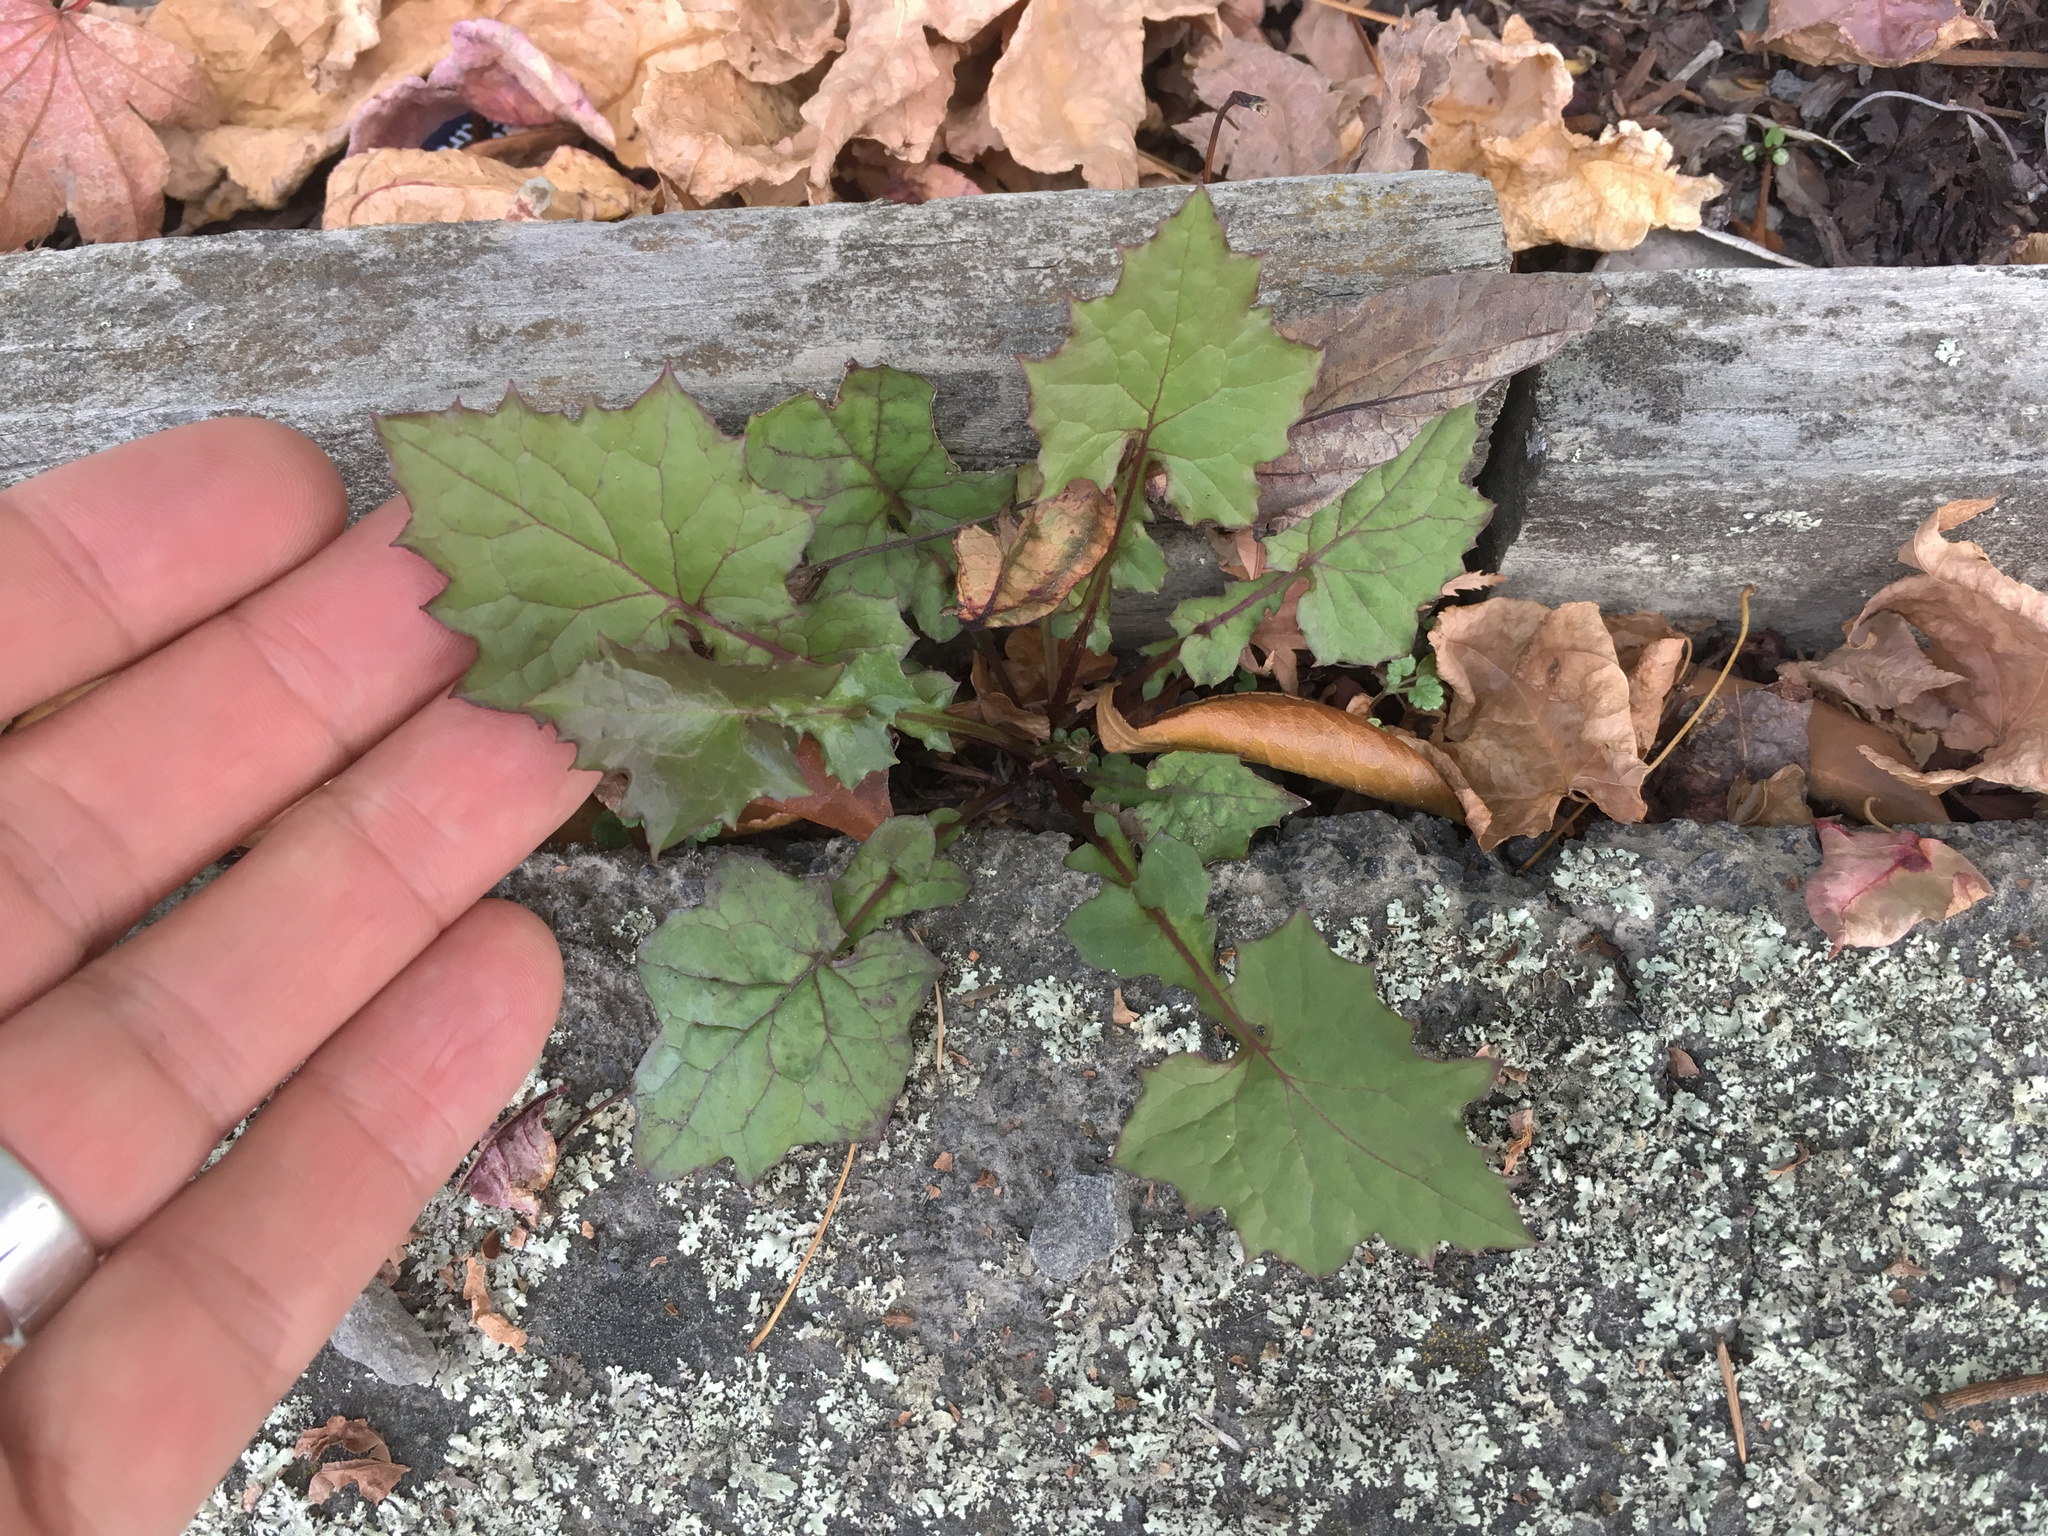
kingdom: Plantae
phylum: Tracheophyta
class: Magnoliopsida
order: Asterales
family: Asteraceae
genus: Mycelis
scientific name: Mycelis muralis
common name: Wall lettuce
